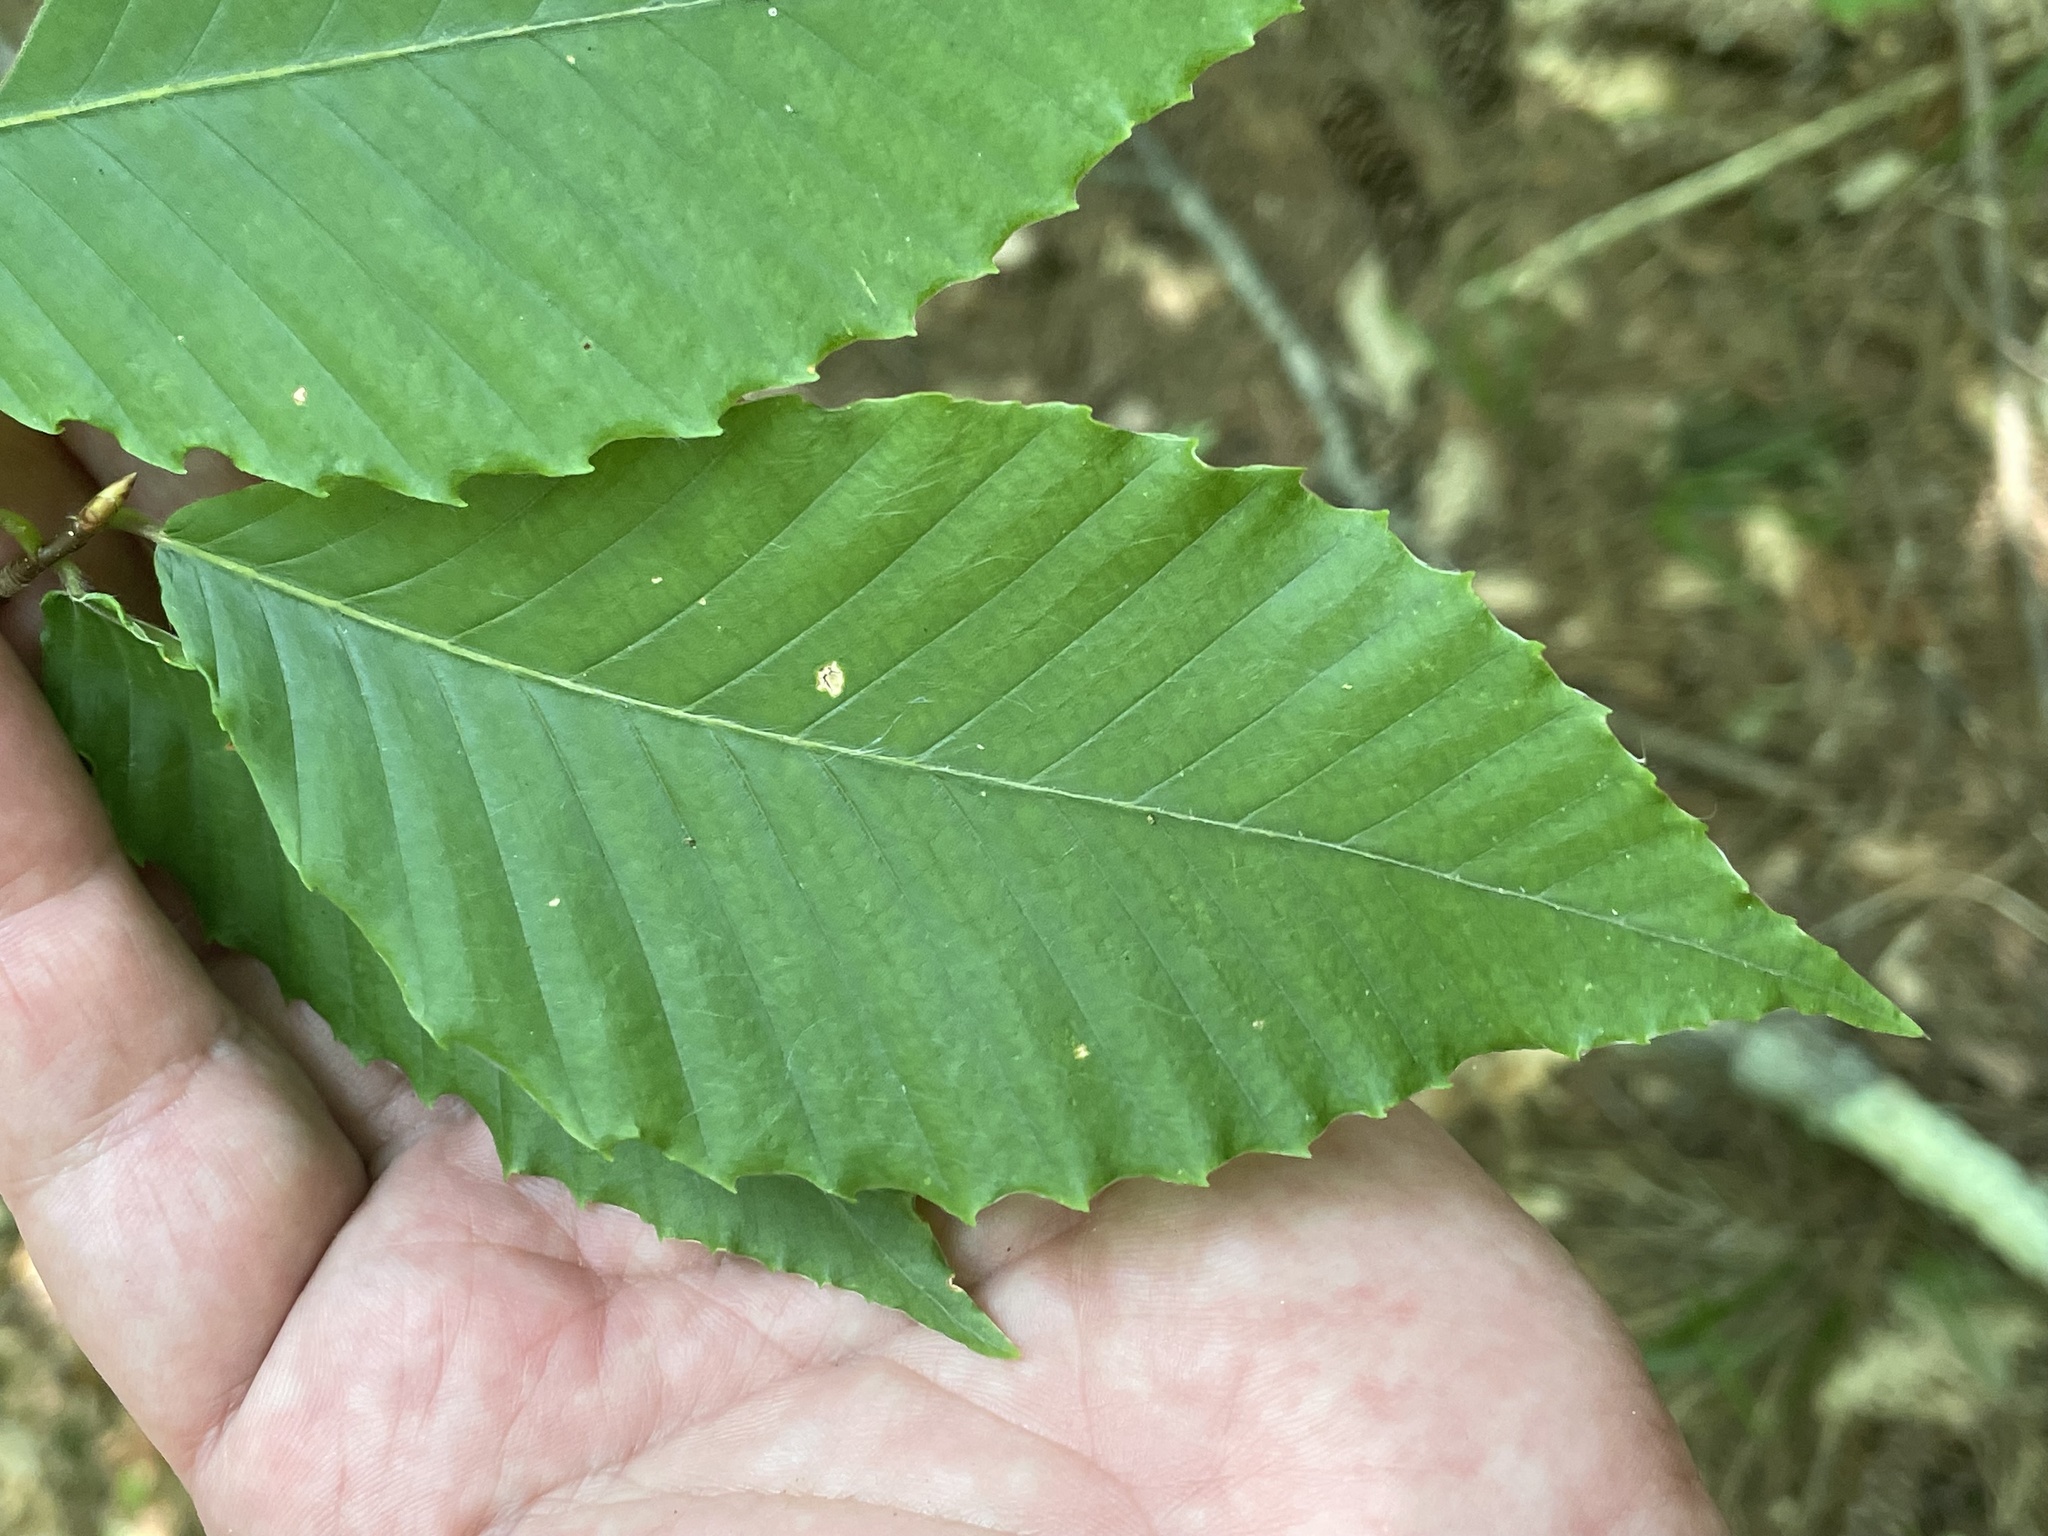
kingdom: Plantae
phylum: Tracheophyta
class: Magnoliopsida
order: Fagales
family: Fagaceae
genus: Fagus
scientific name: Fagus grandifolia
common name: American beech
